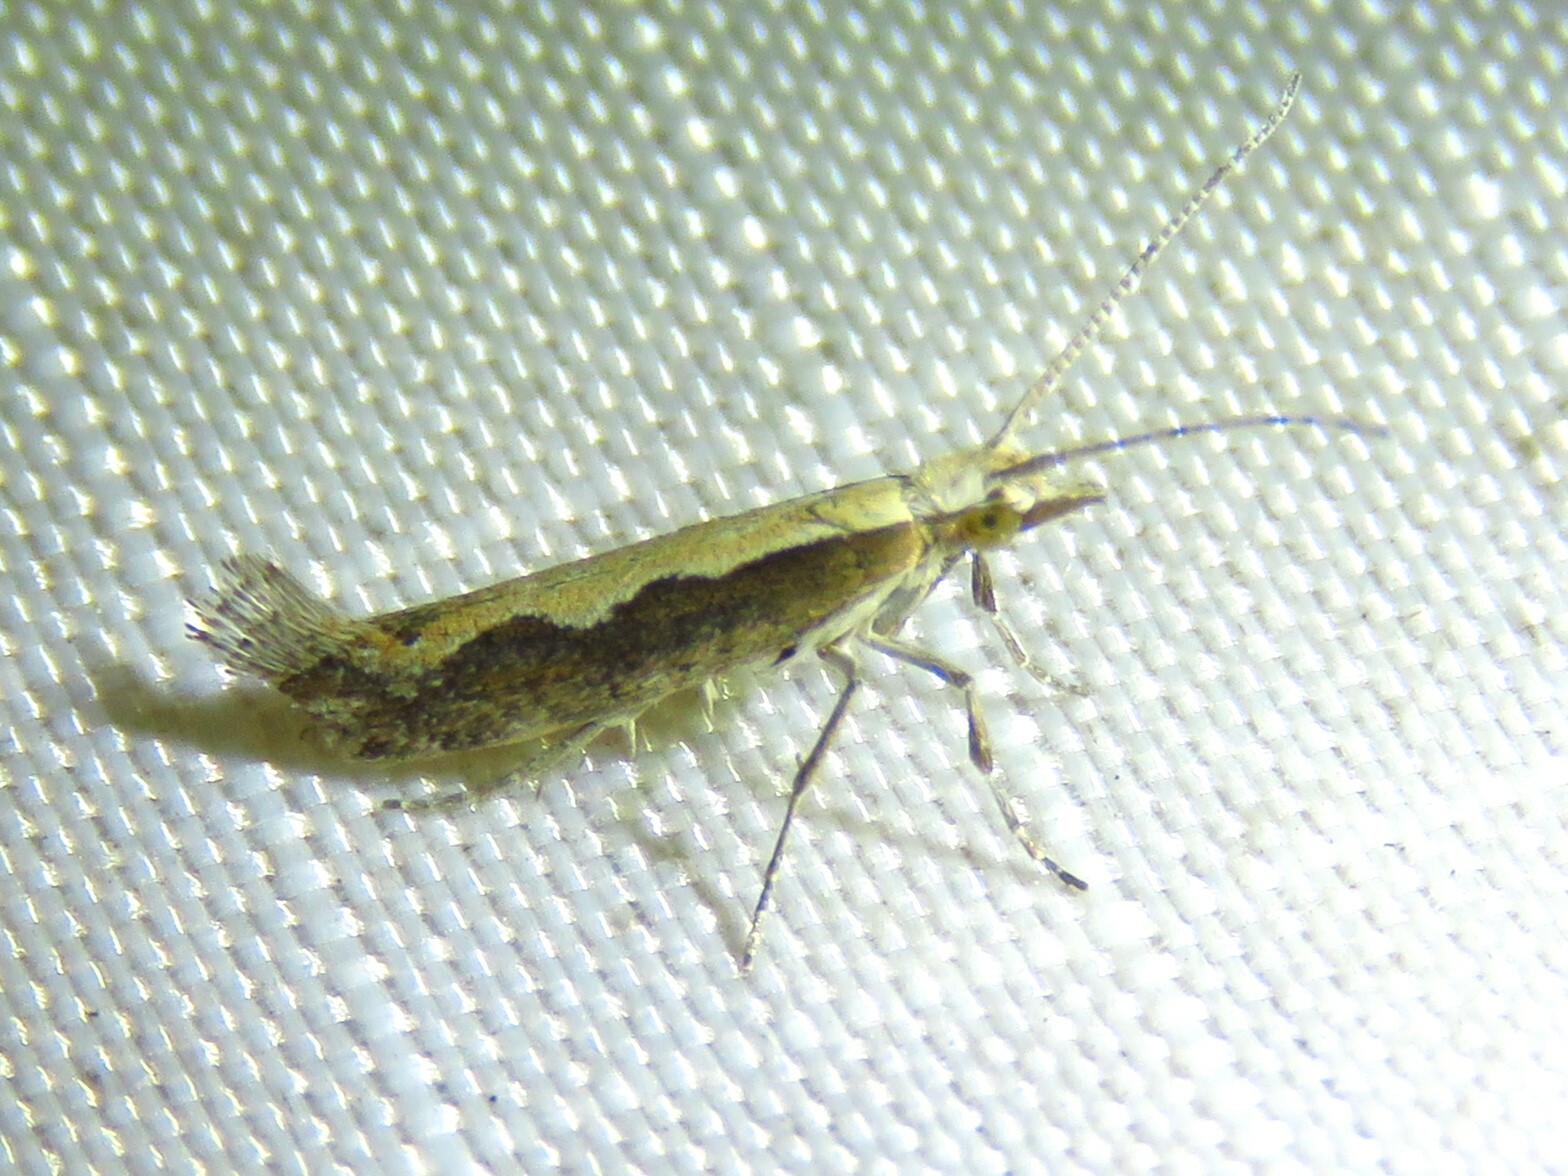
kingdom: Animalia
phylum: Arthropoda
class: Insecta
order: Lepidoptera
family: Plutellidae
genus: Plutella
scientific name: Plutella xylostella
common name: Diamond-back moth
